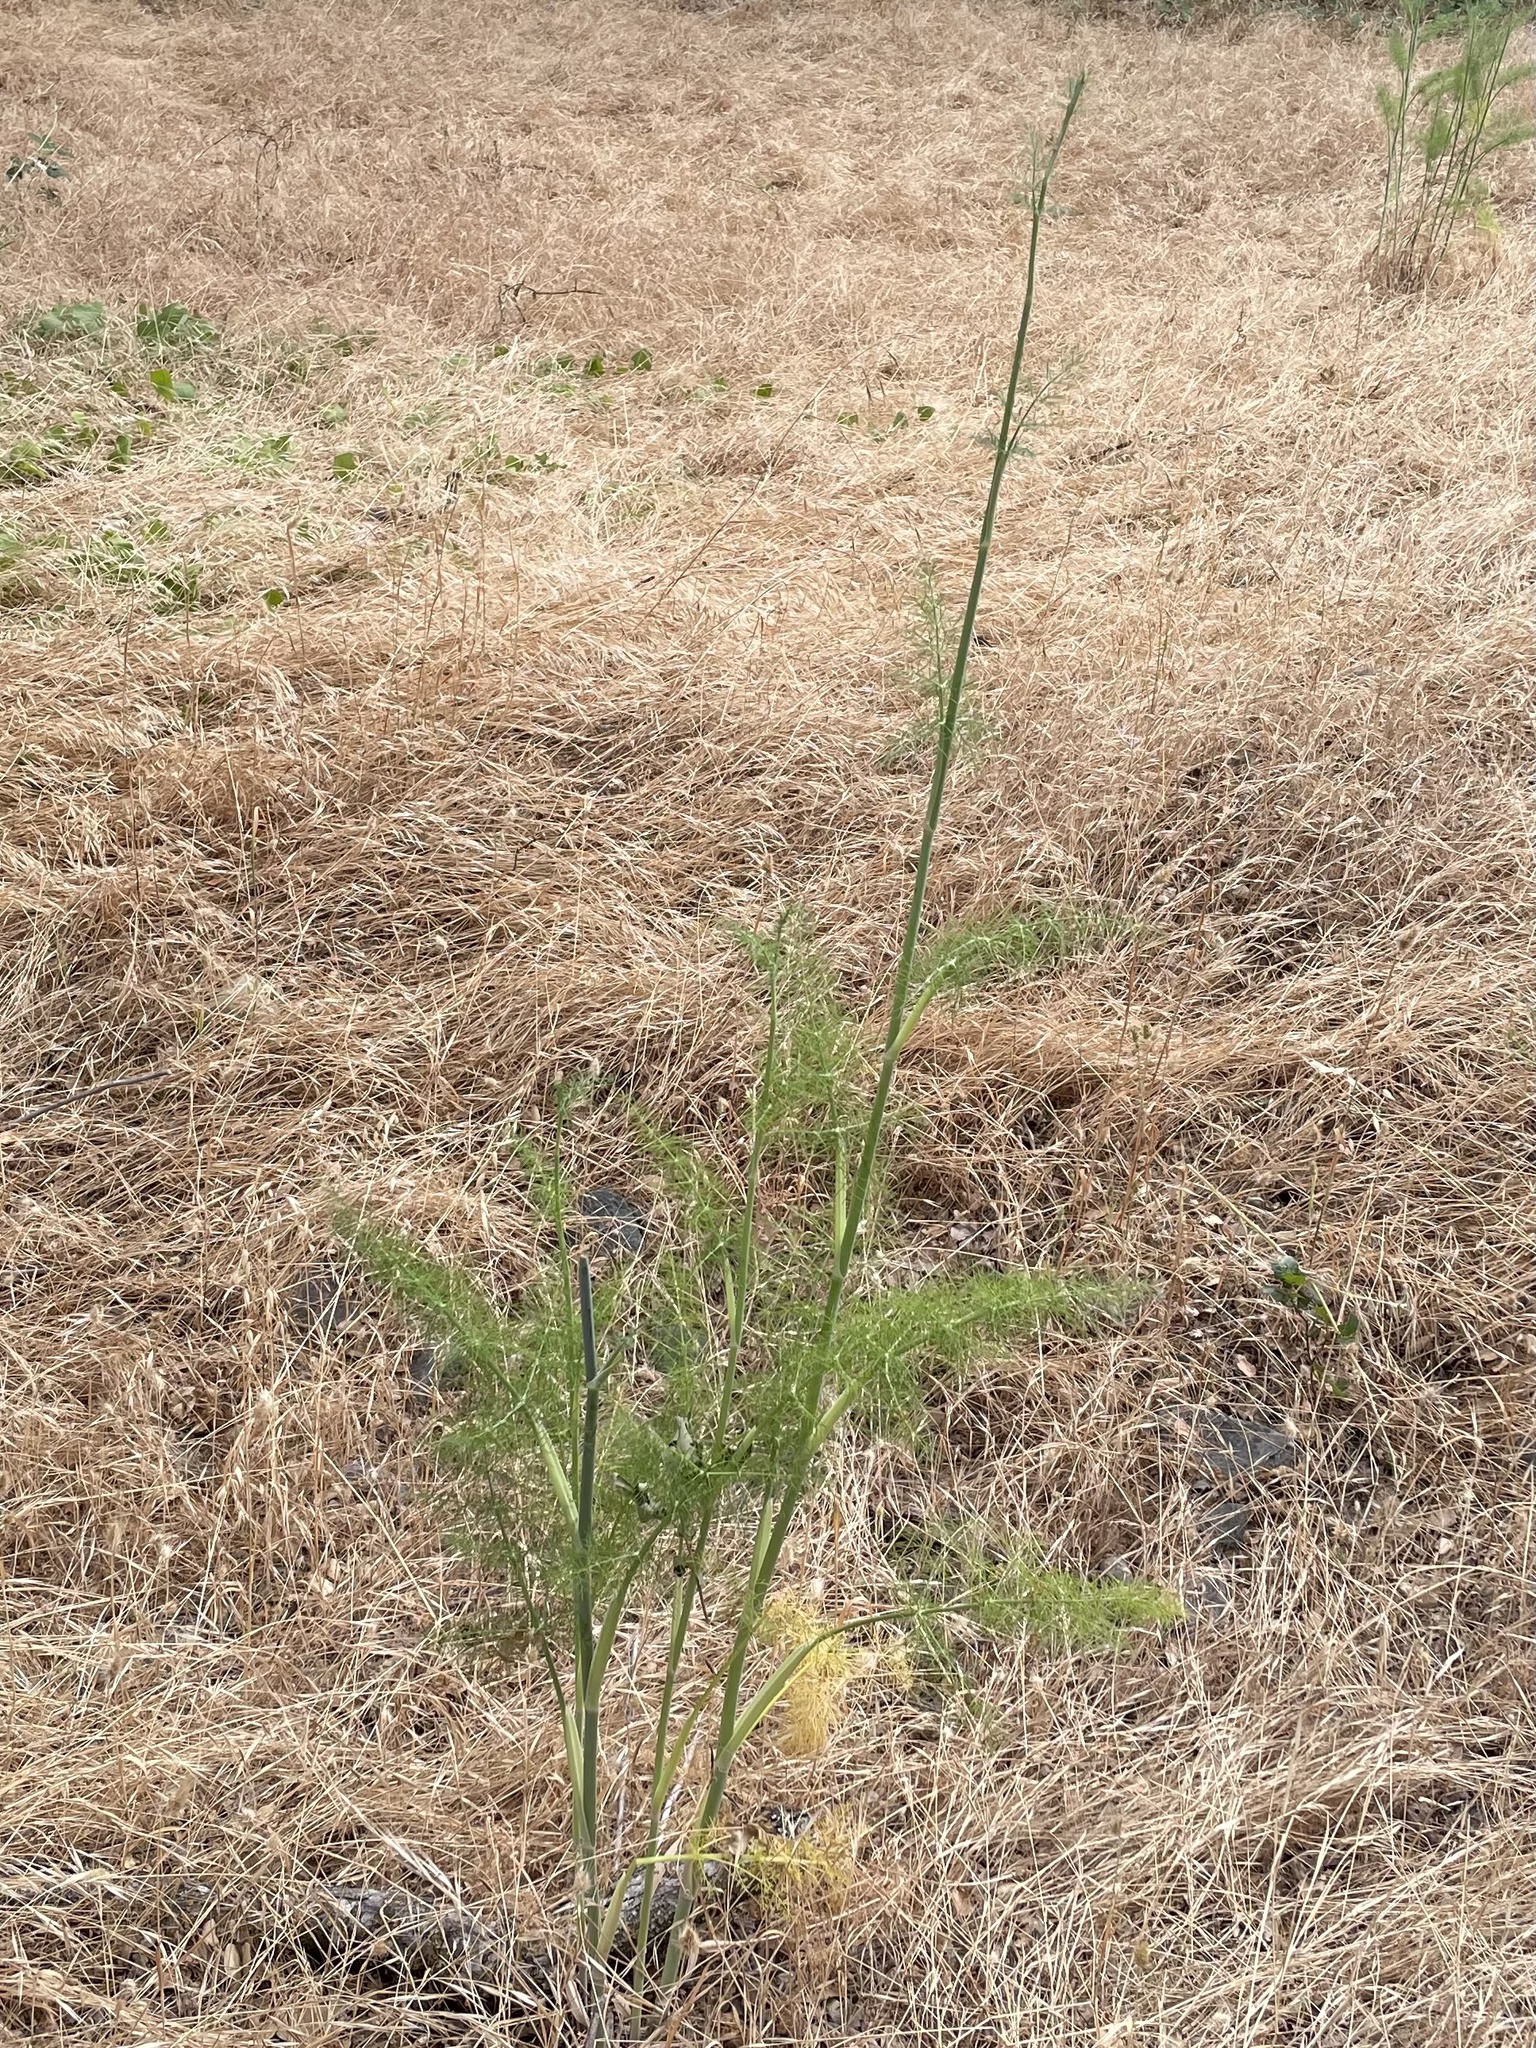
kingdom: Plantae
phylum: Tracheophyta
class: Magnoliopsida
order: Apiales
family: Apiaceae
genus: Foeniculum
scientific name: Foeniculum vulgare
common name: Fennel
